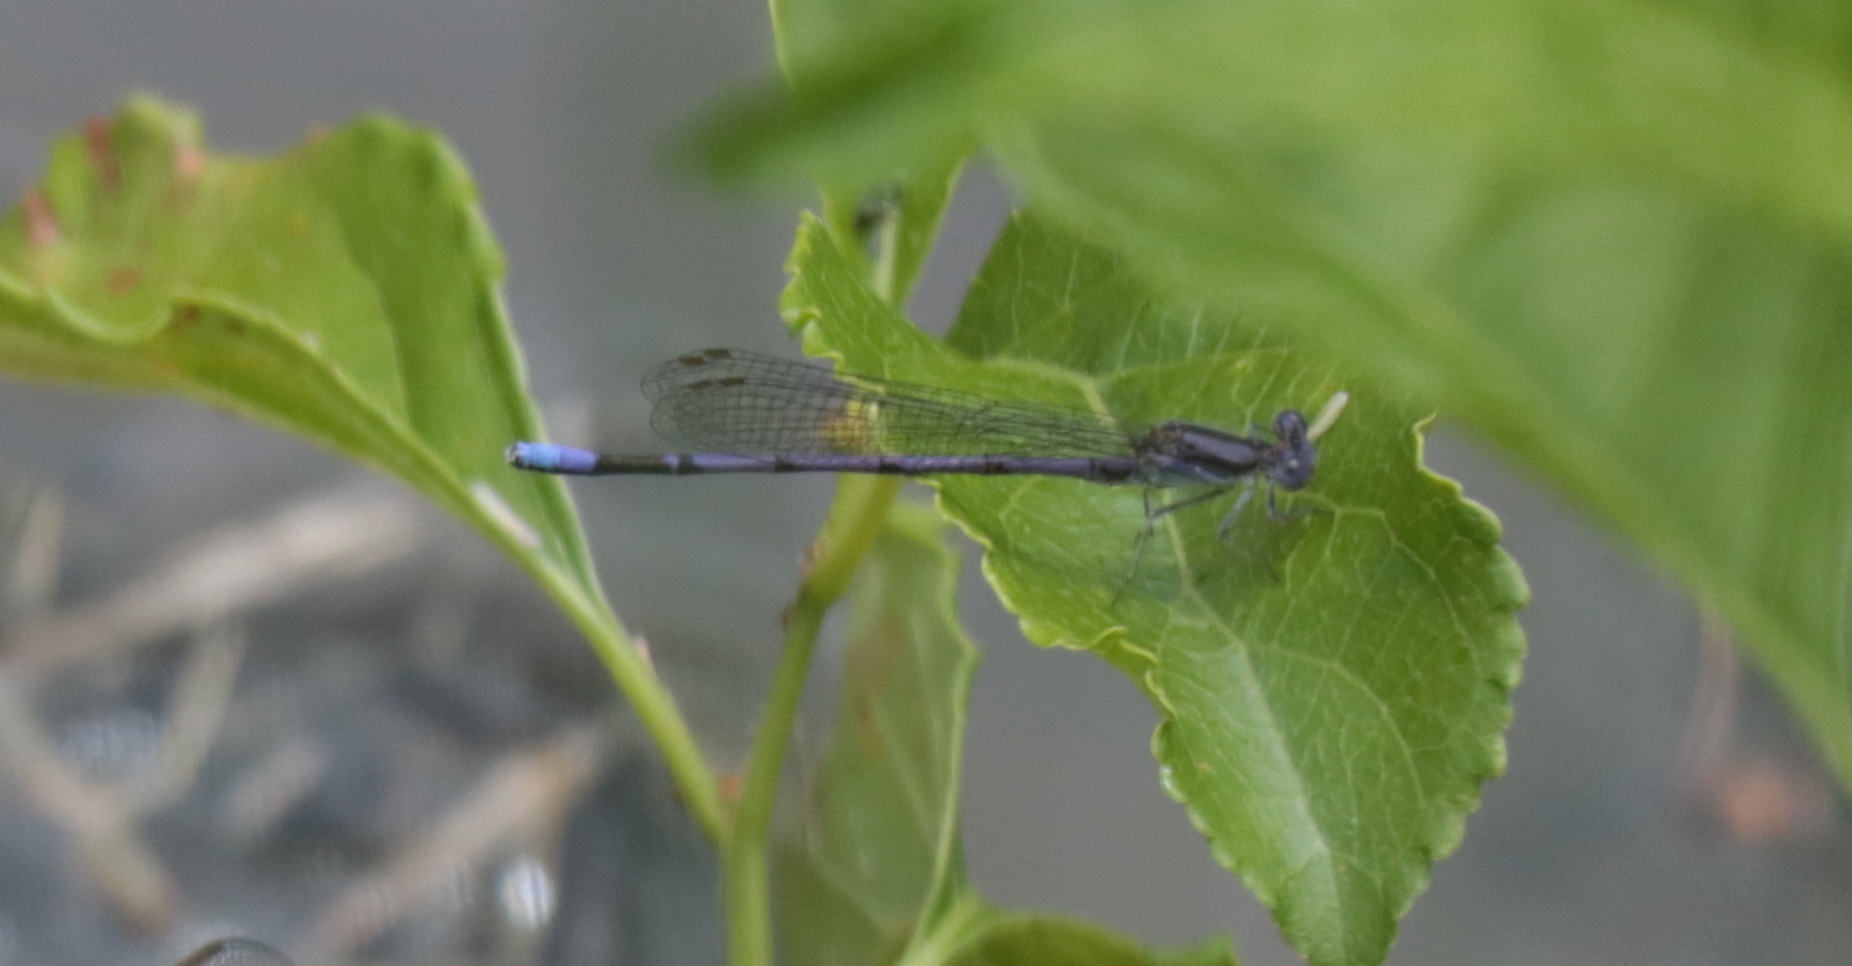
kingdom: Animalia
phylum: Arthropoda
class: Insecta
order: Odonata
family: Coenagrionidae
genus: Argia
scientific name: Argia fumipennis
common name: Variable dancer
